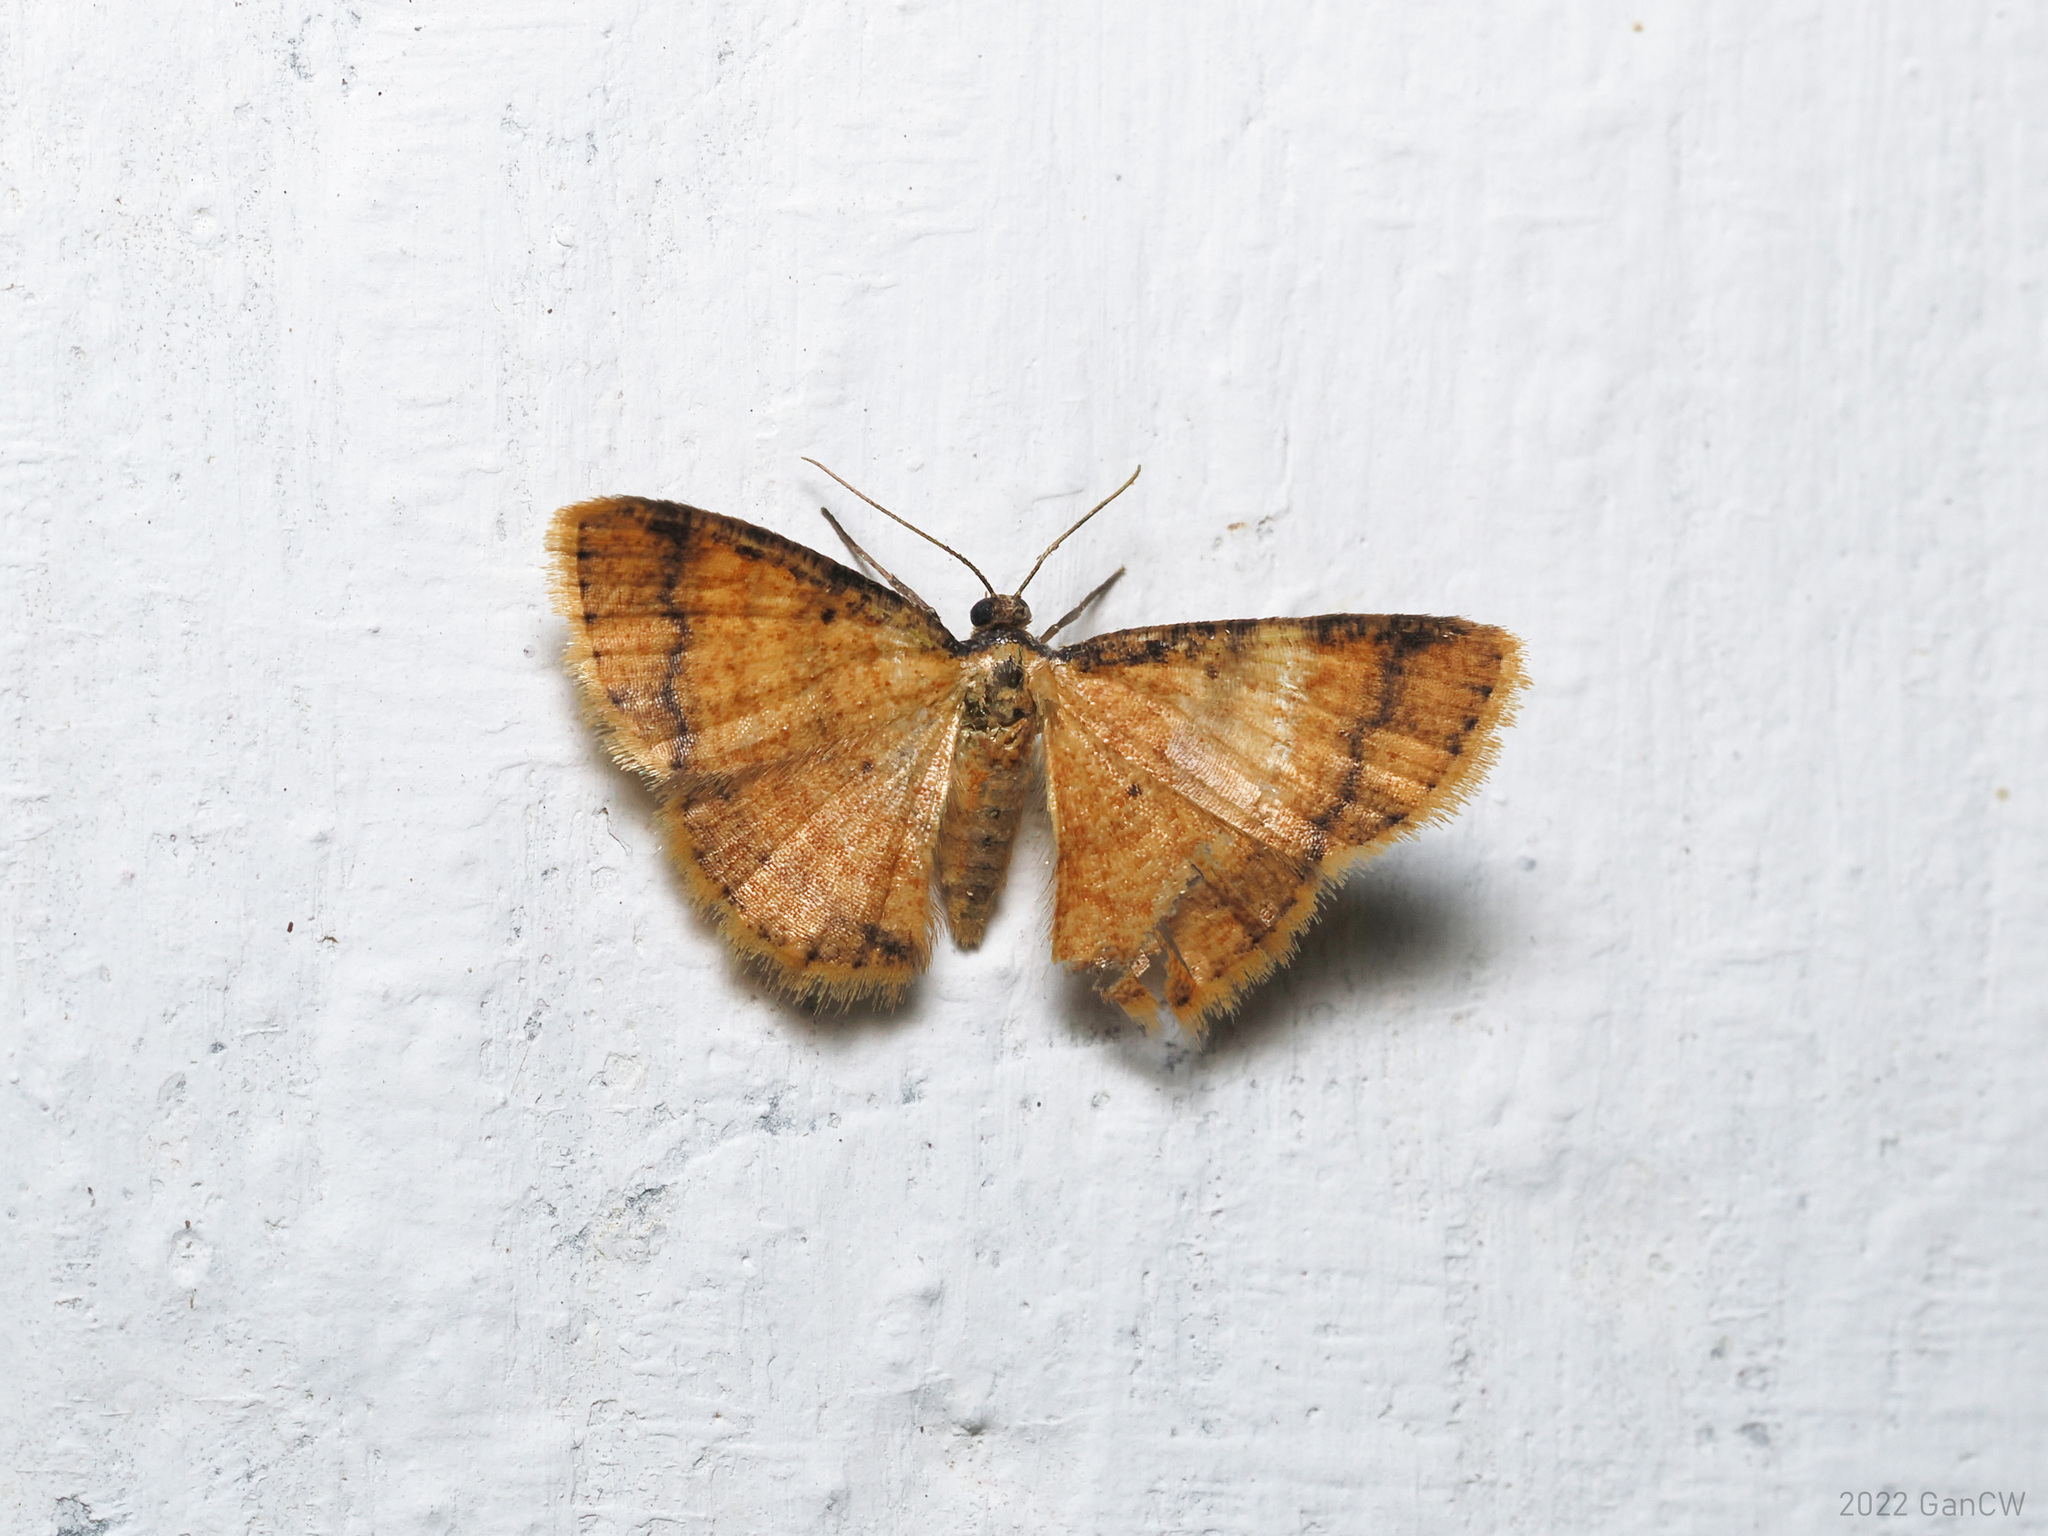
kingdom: Animalia
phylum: Arthropoda
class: Insecta
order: Lepidoptera
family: Geometridae
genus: Heterostegane
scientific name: Heterostegane subfasciata
